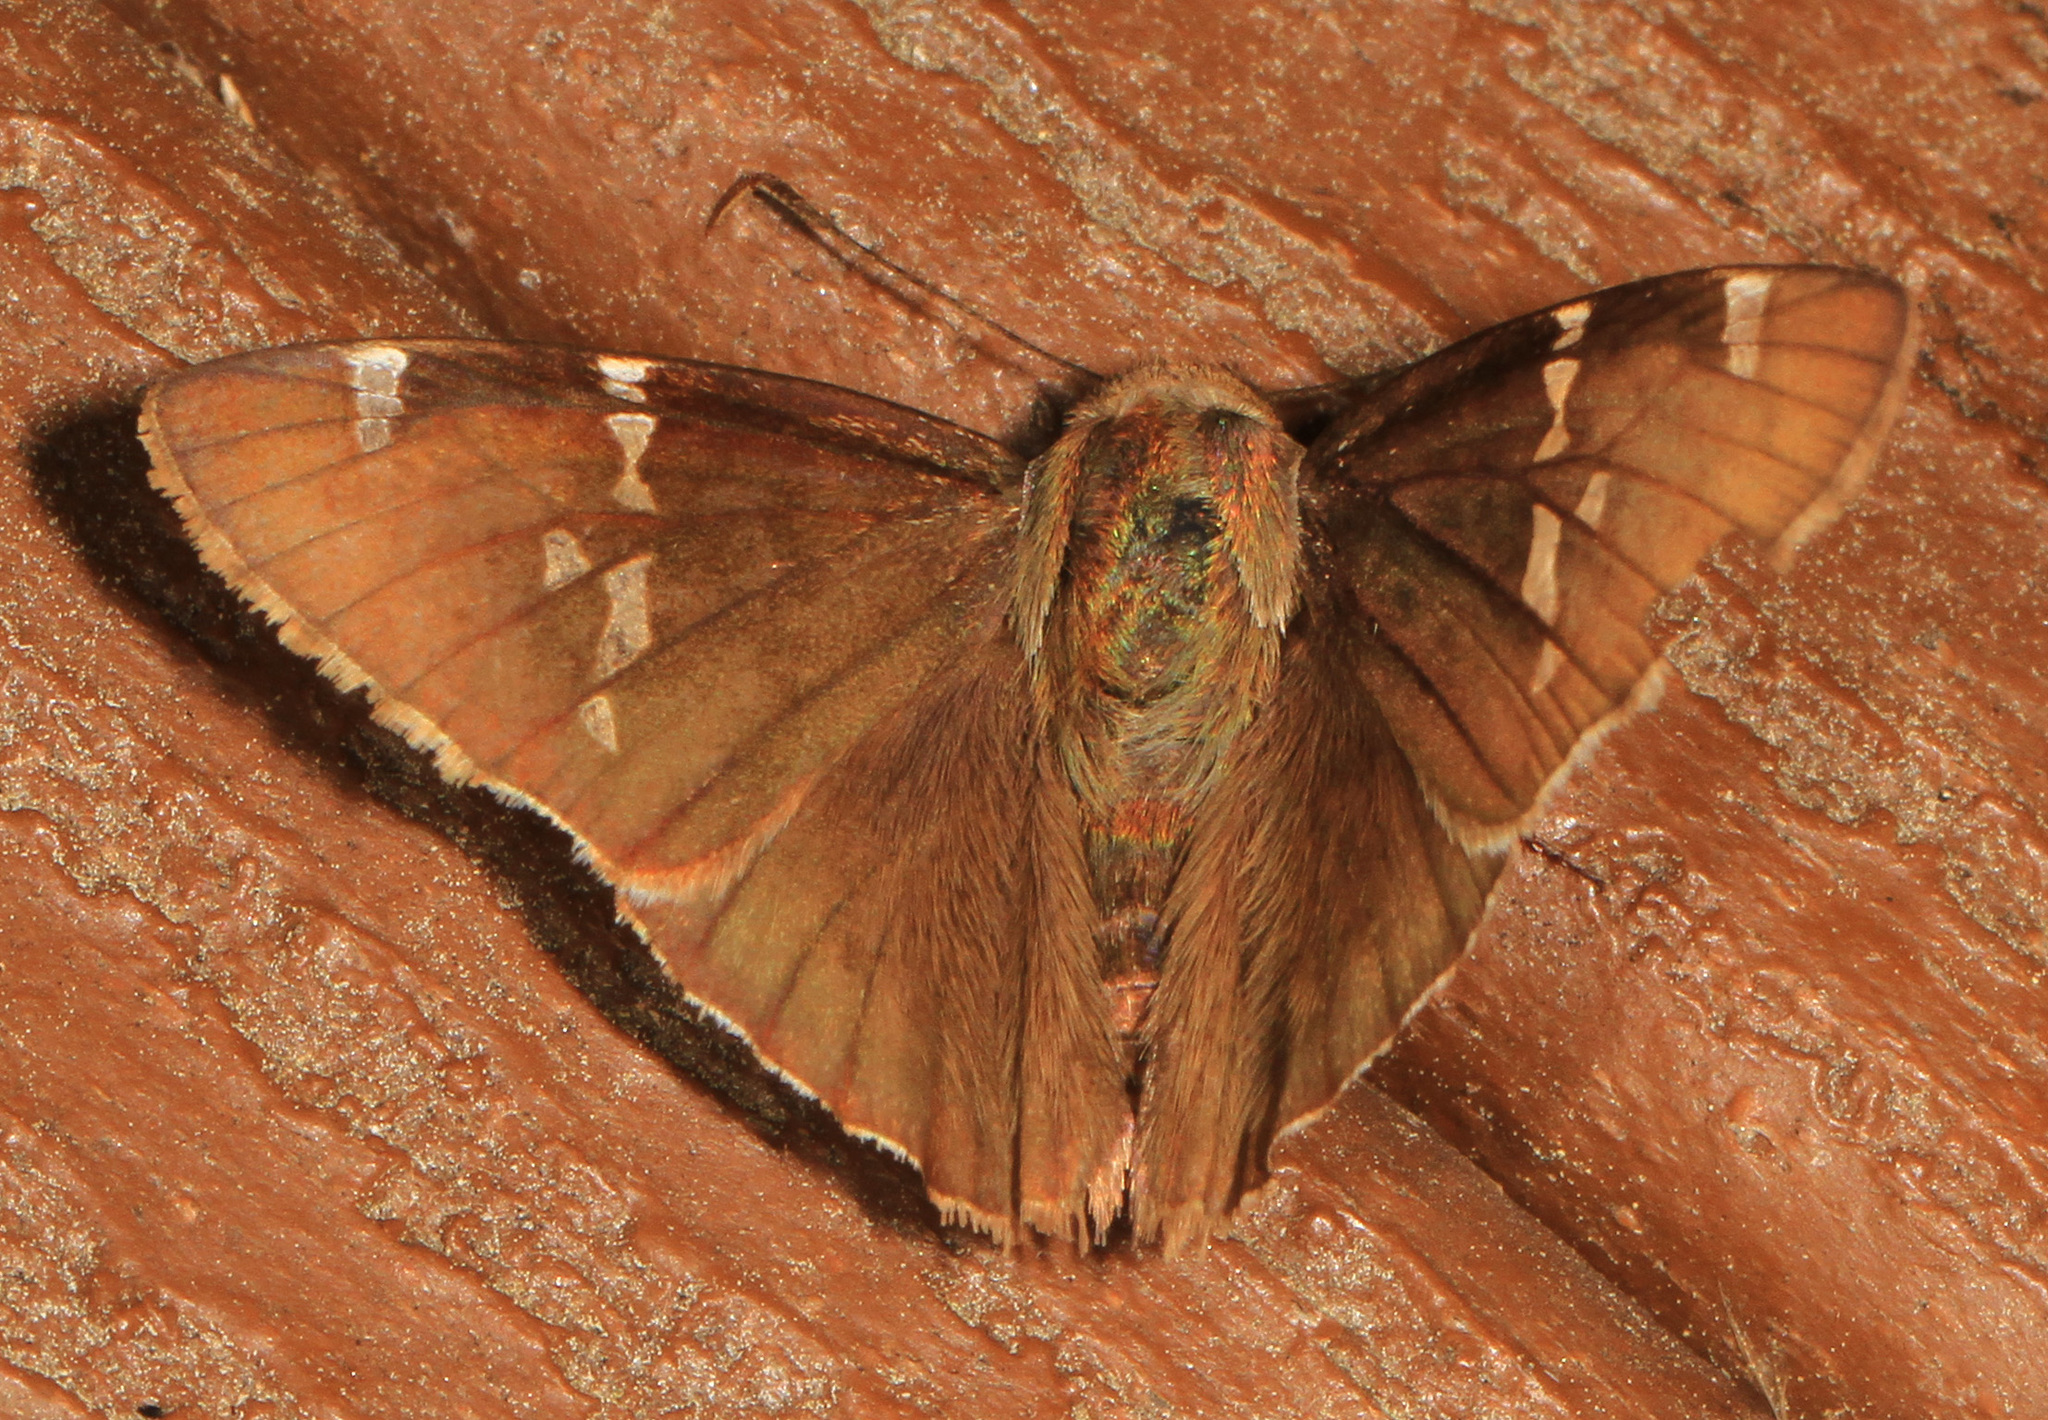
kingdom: Animalia
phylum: Arthropoda
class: Insecta
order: Lepidoptera
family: Hesperiidae
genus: Thorybes
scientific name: Thorybes daunus
